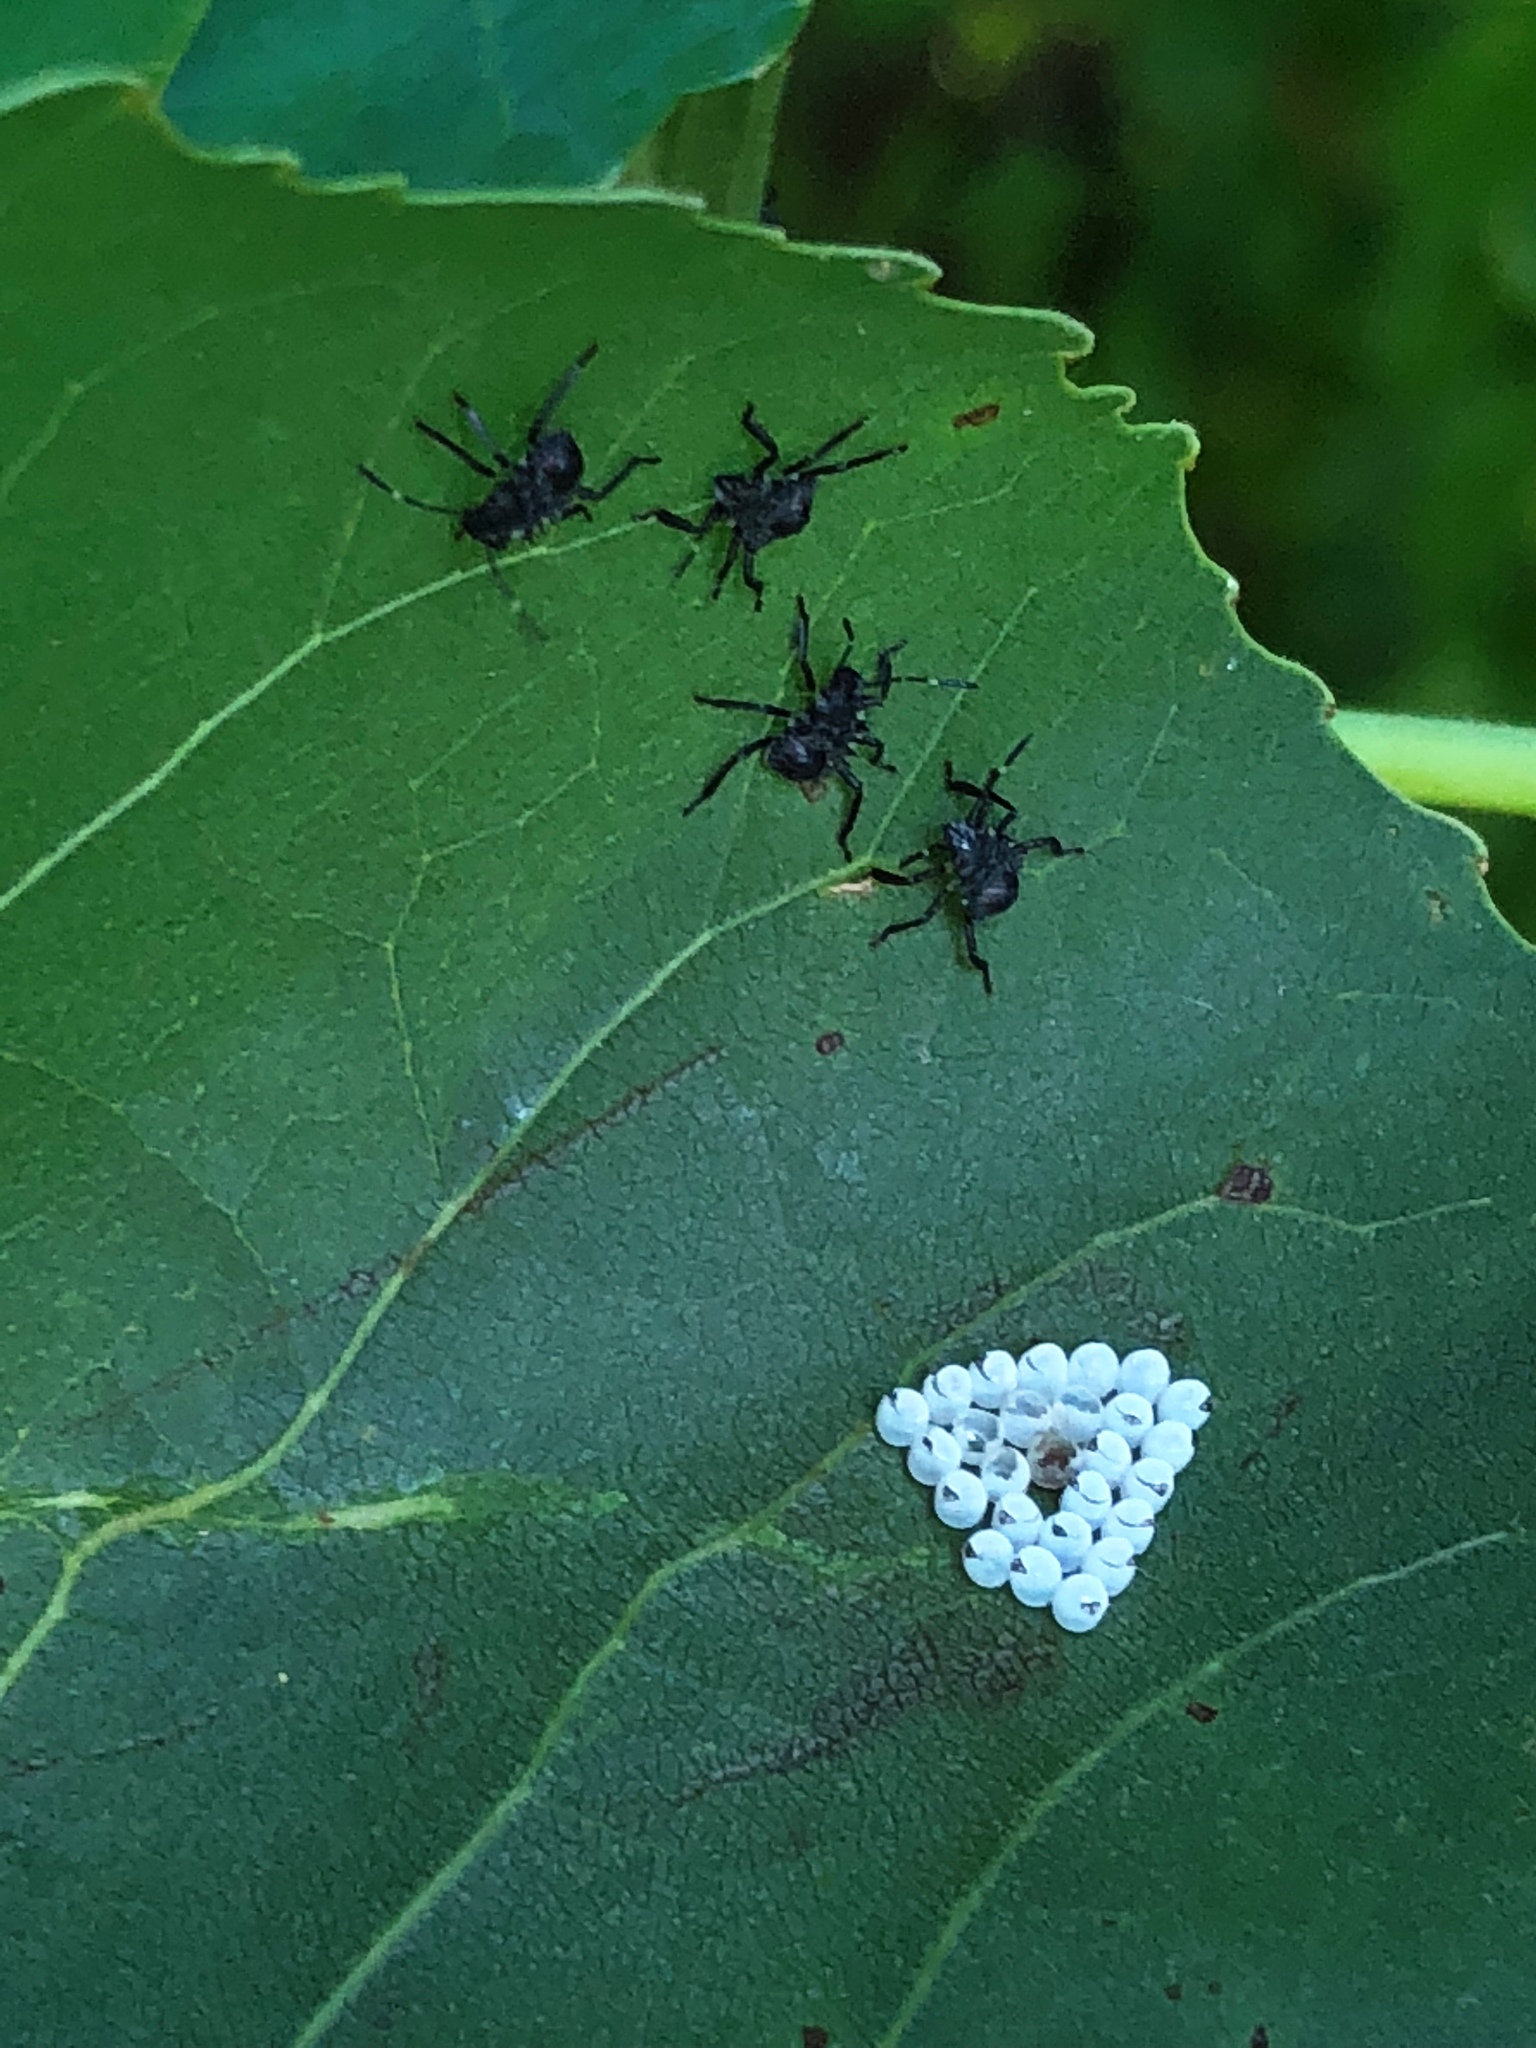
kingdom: Animalia
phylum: Arthropoda
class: Insecta
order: Hemiptera
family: Pentatomidae
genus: Halyomorpha
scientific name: Halyomorpha halys
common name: Brown marmorated stink bug
